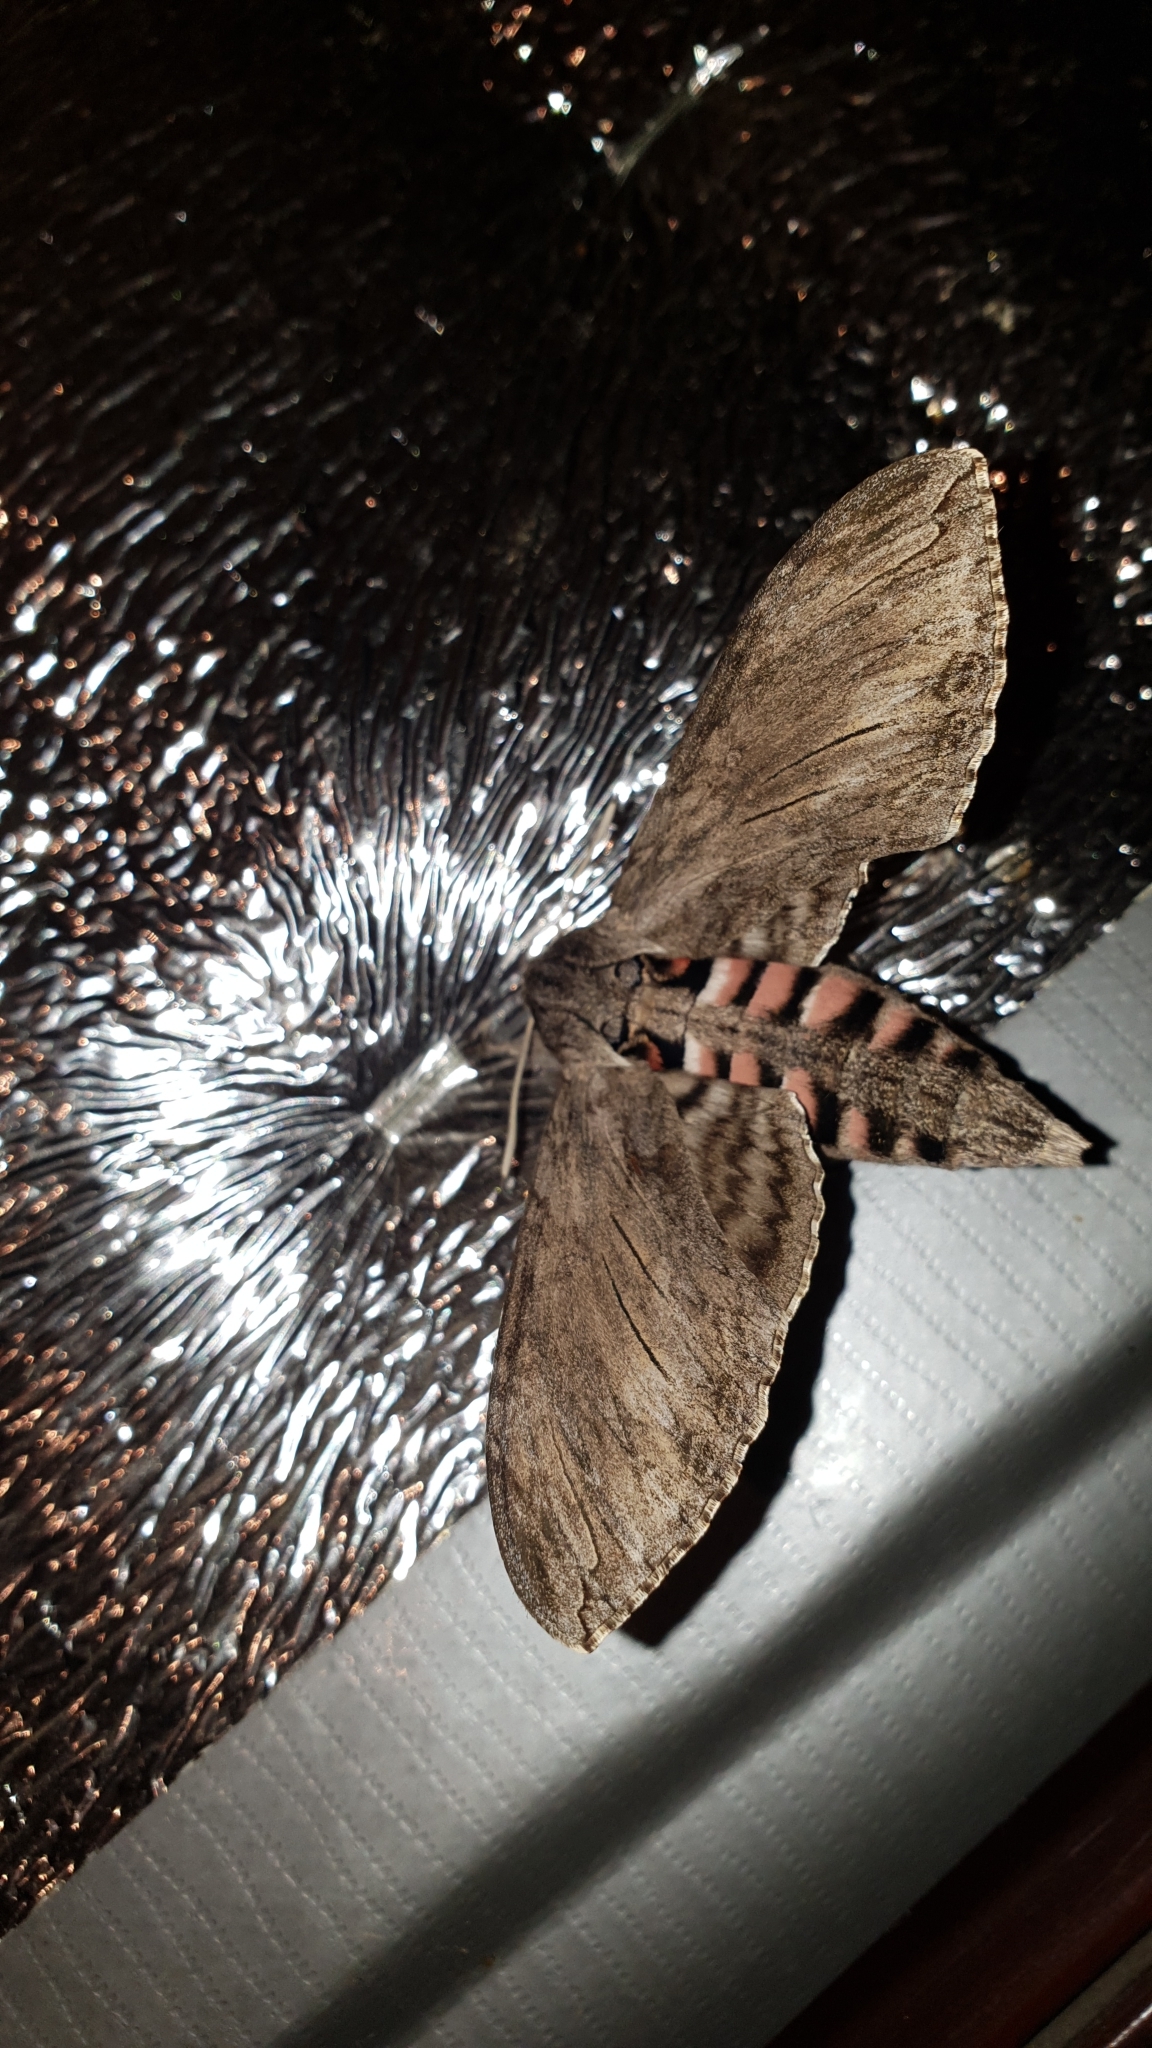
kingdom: Animalia
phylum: Arthropoda
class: Insecta
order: Lepidoptera
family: Sphingidae
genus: Agrius
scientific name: Agrius convolvuli
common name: Convolvulus hawkmoth
